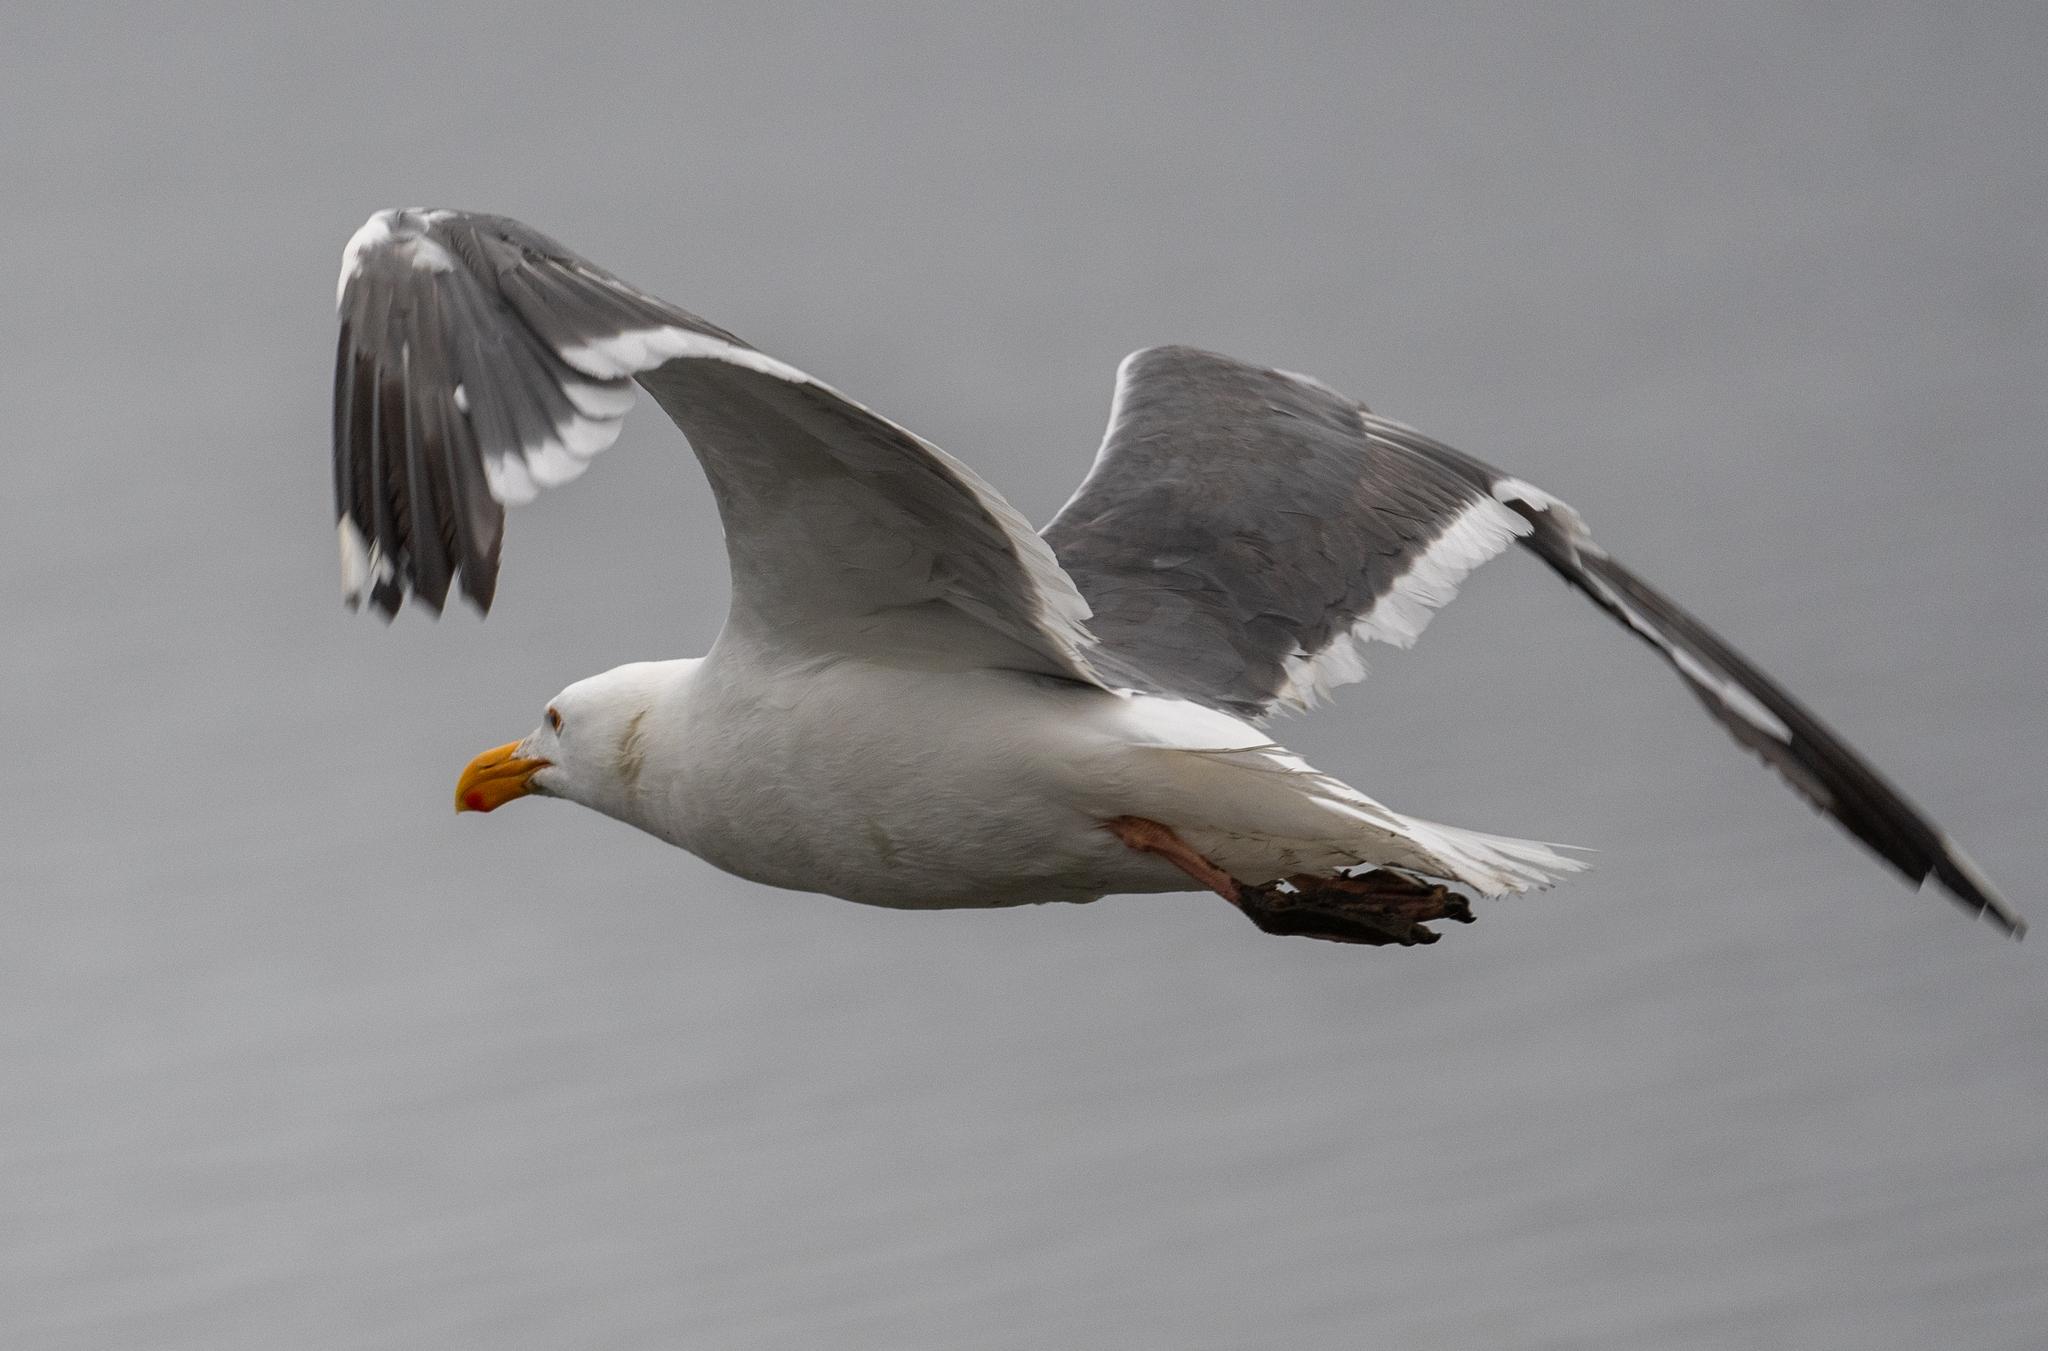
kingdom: Animalia
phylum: Chordata
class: Aves
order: Charadriiformes
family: Laridae
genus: Larus
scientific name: Larus occidentalis
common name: Western gull
